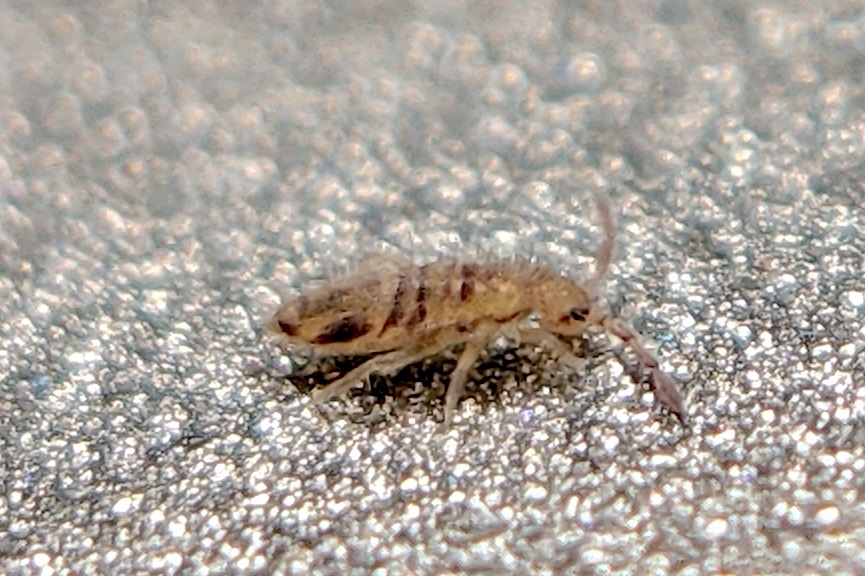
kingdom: Animalia
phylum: Arthropoda
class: Collembola
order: Entomobryomorpha
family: Entomobryidae
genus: Entomobrya
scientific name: Entomobrya washingtonia
